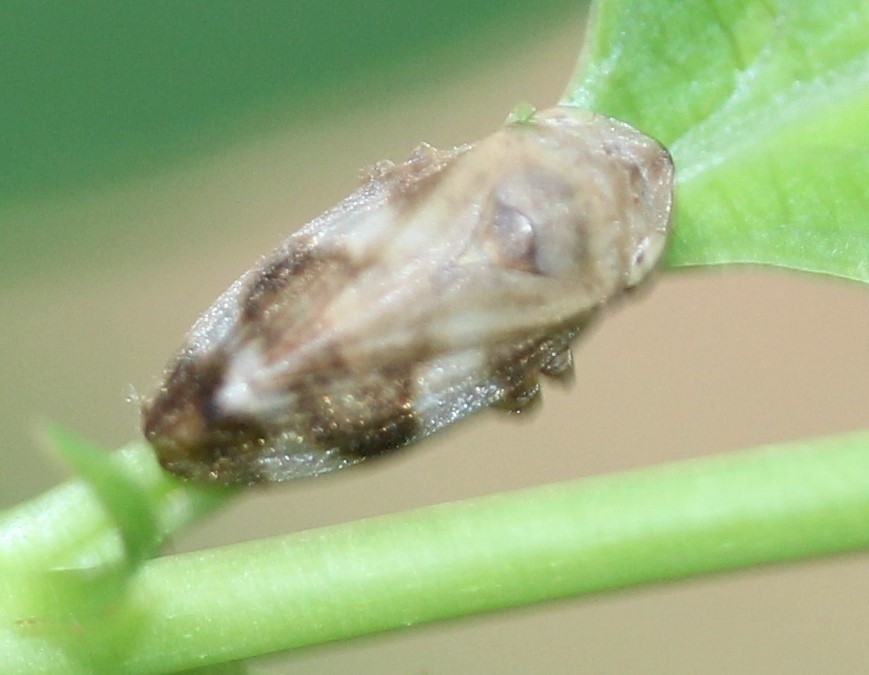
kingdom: Animalia
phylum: Arthropoda
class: Insecta
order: Hemiptera
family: Aphrophoridae
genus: Philaenus
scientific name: Philaenus spumarius
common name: Meadow spittlebug
